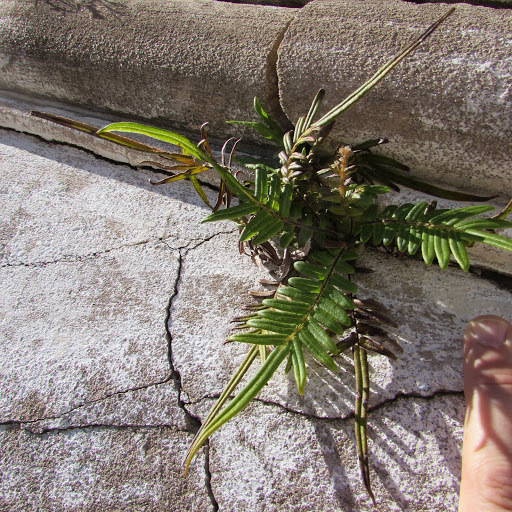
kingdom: Plantae
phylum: Tracheophyta
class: Polypodiopsida
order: Polypodiales
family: Pteridaceae
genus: Pteris
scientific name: Pteris vittata
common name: Ladder brake
